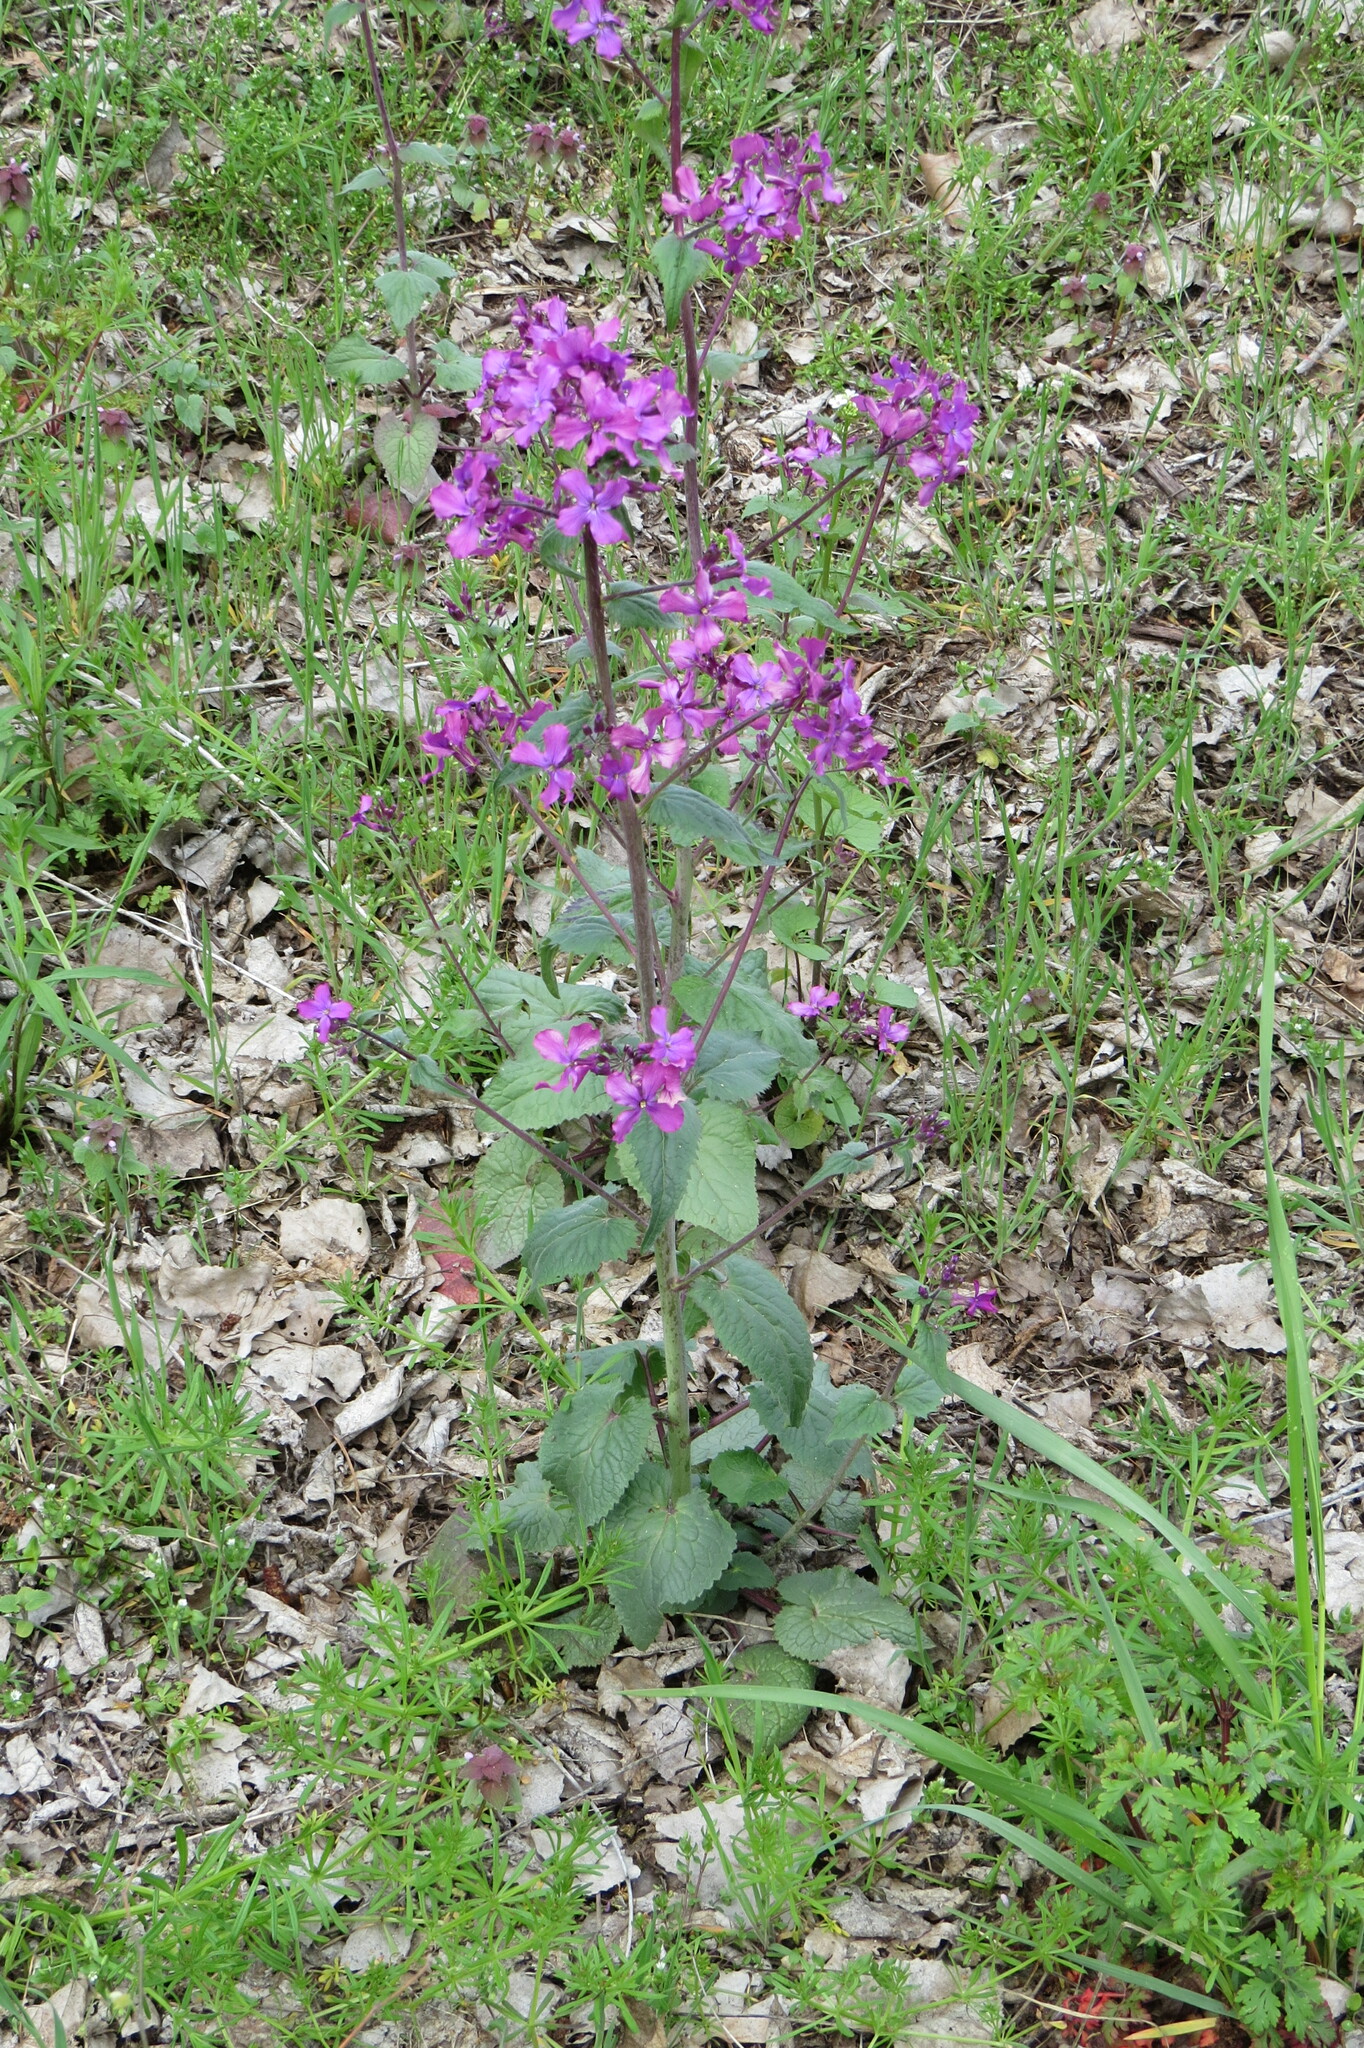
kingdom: Plantae
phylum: Tracheophyta
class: Magnoliopsida
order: Brassicales
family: Brassicaceae
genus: Lunaria
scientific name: Lunaria annua
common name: Honesty
